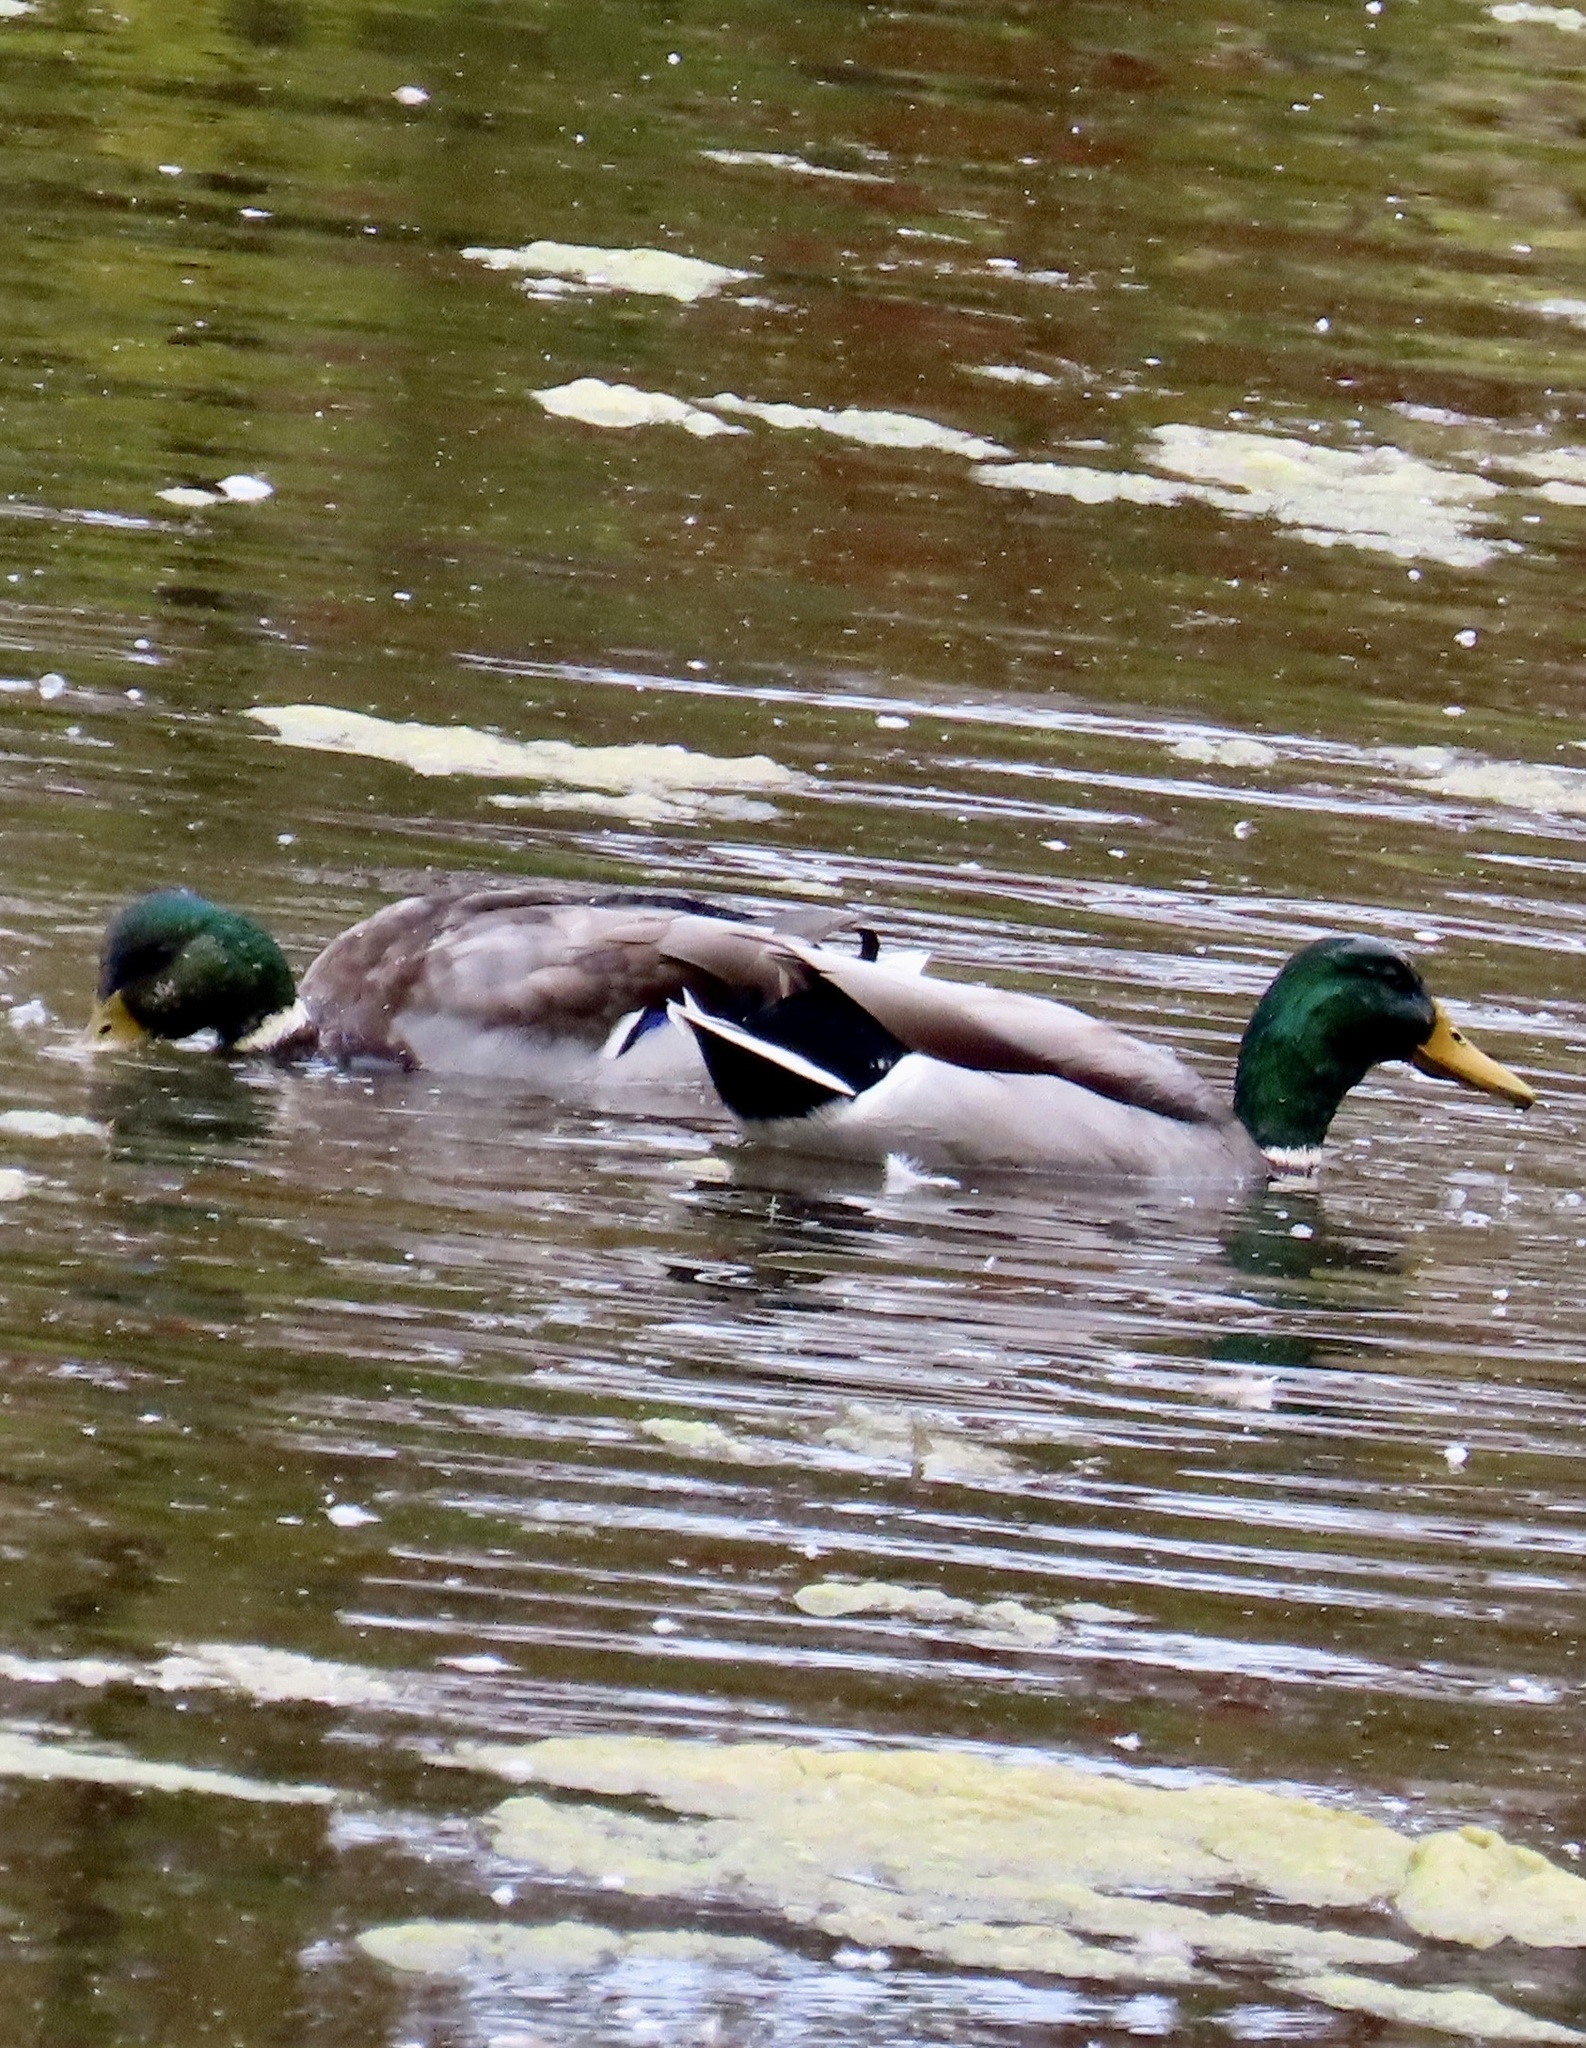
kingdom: Animalia
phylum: Chordata
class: Aves
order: Anseriformes
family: Anatidae
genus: Anas
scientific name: Anas platyrhynchos
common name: Mallard
